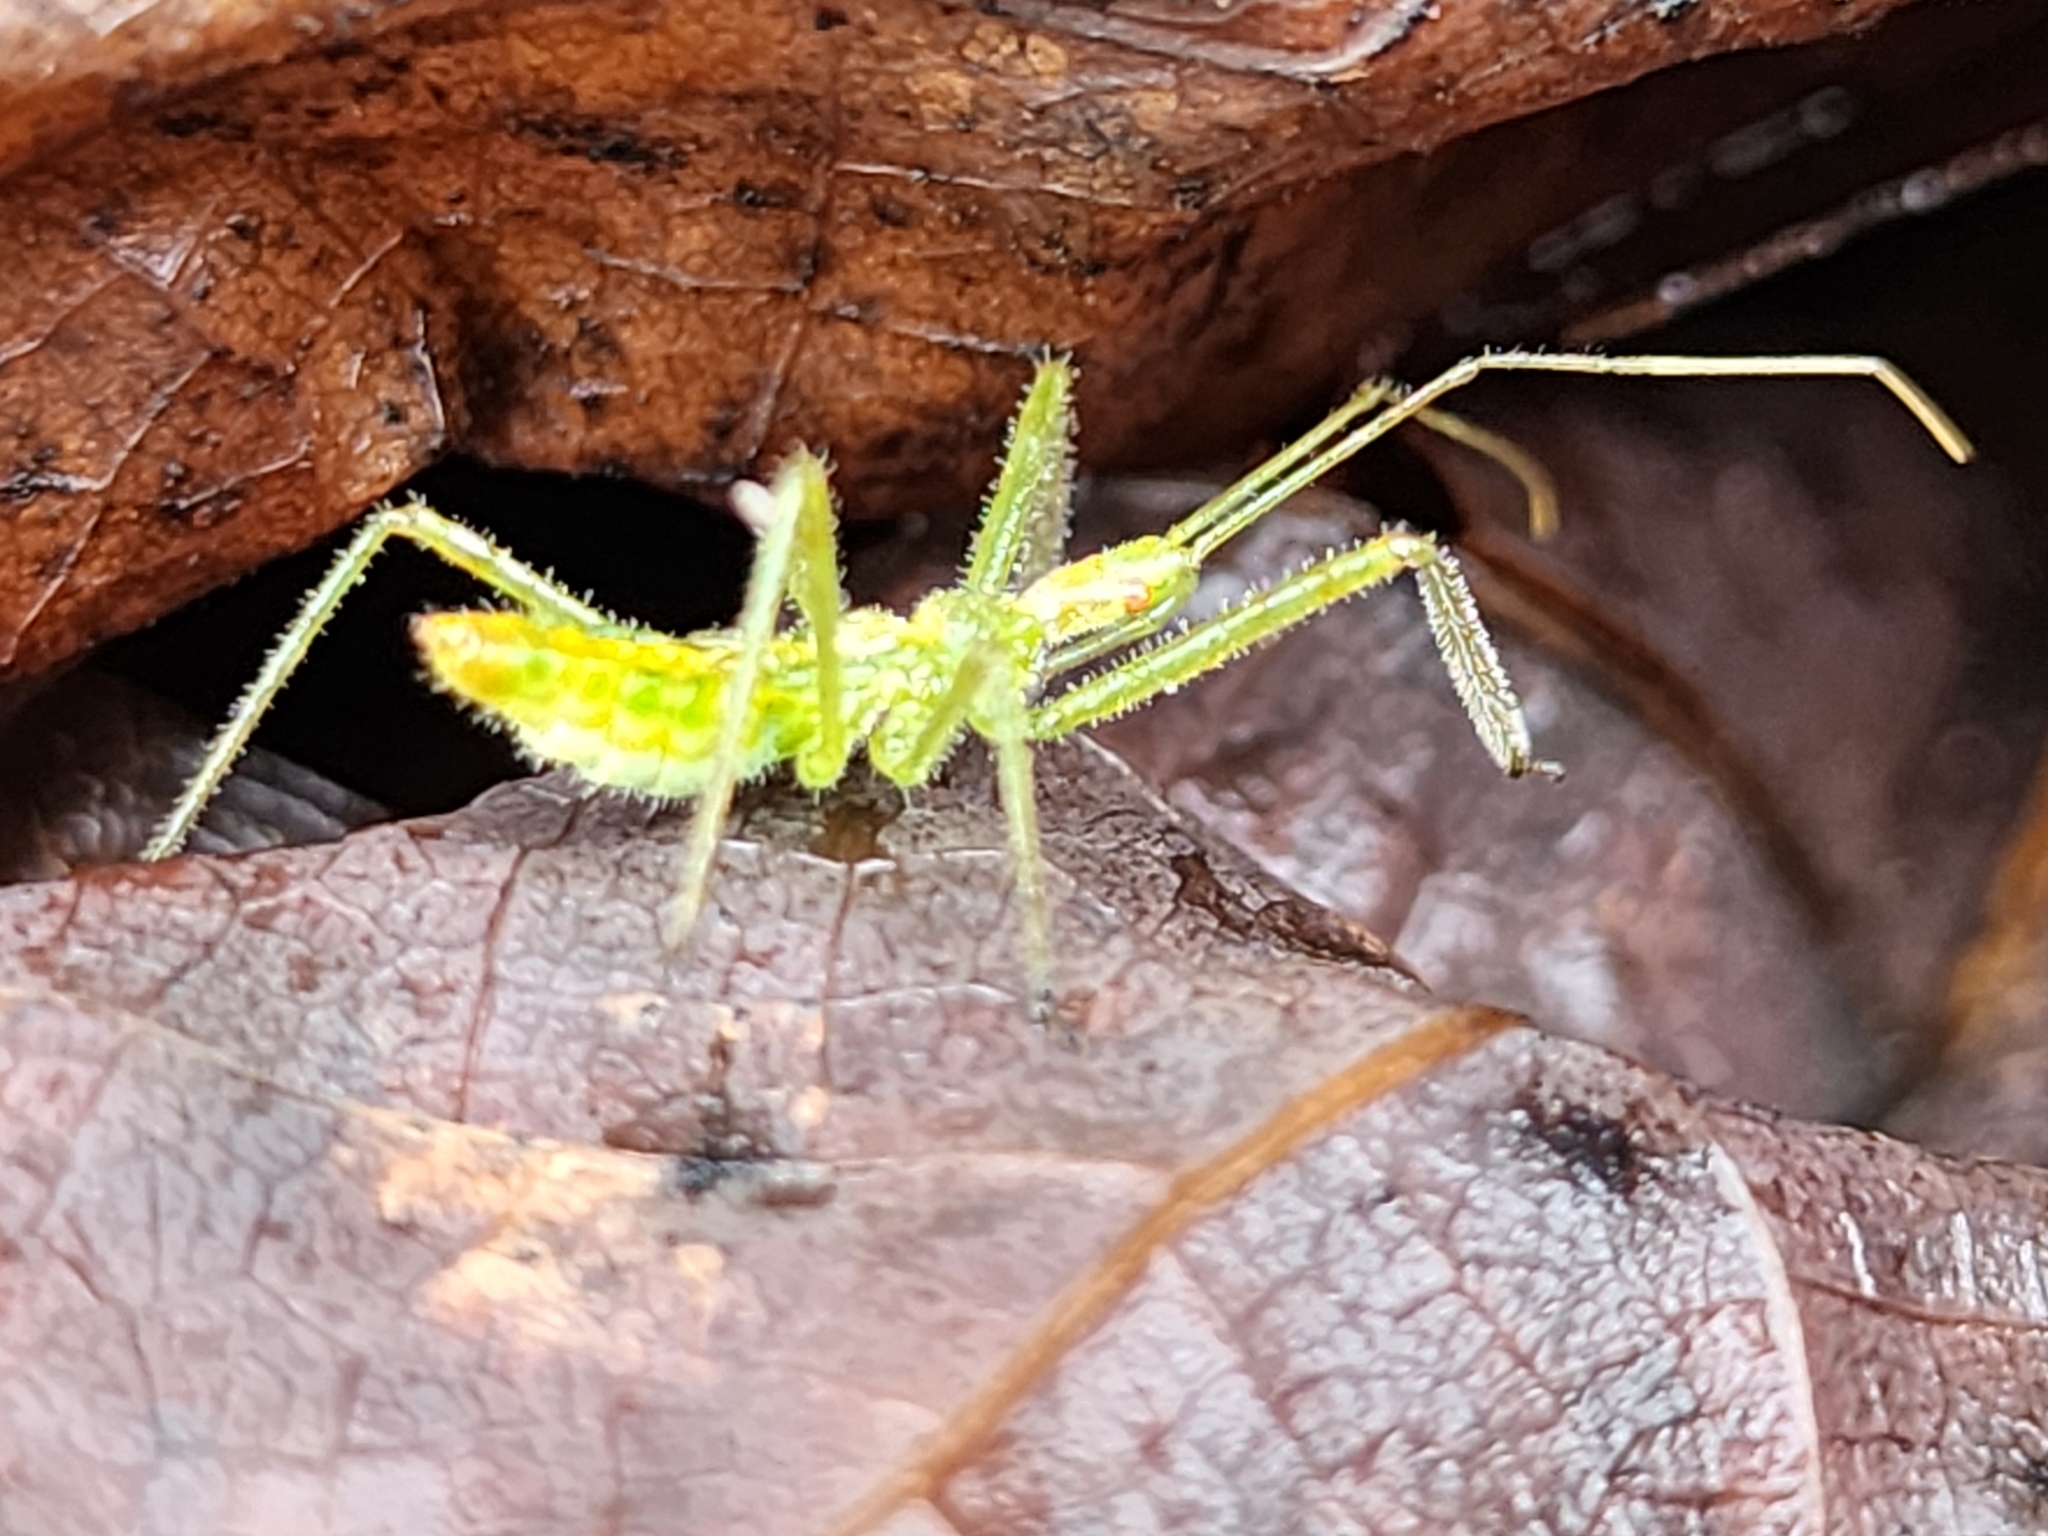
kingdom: Animalia
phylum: Arthropoda
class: Insecta
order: Hemiptera
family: Reduviidae
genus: Zelus
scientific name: Zelus luridus
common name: Pale green assassin bug
